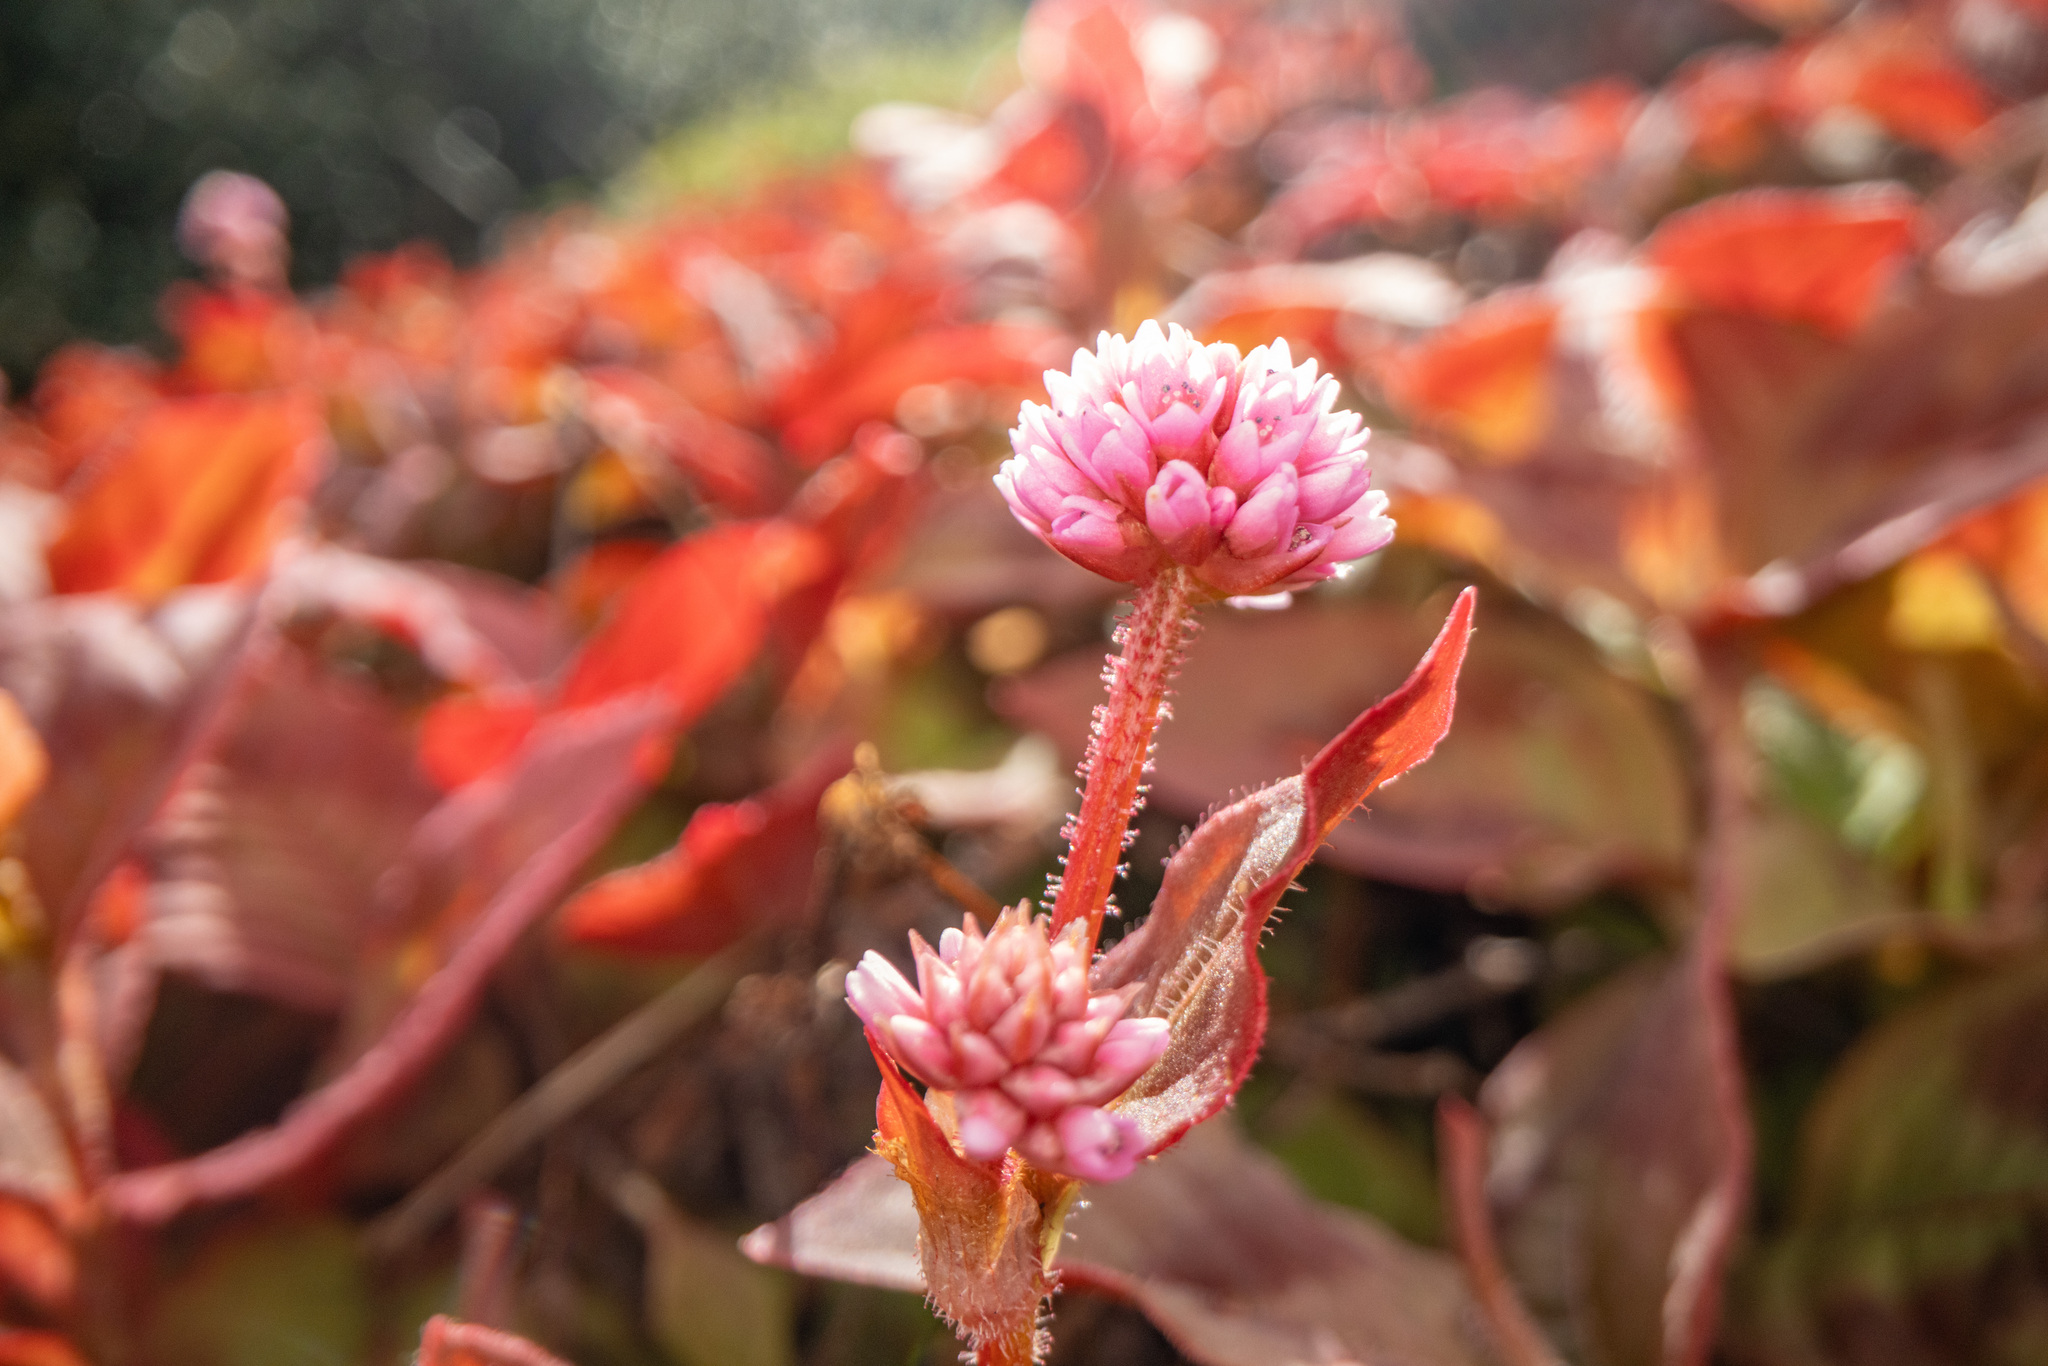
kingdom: Plantae
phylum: Tracheophyta
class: Magnoliopsida
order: Caryophyllales
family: Polygonaceae
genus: Persicaria
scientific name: Persicaria capitata
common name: Pinkhead smartweed
